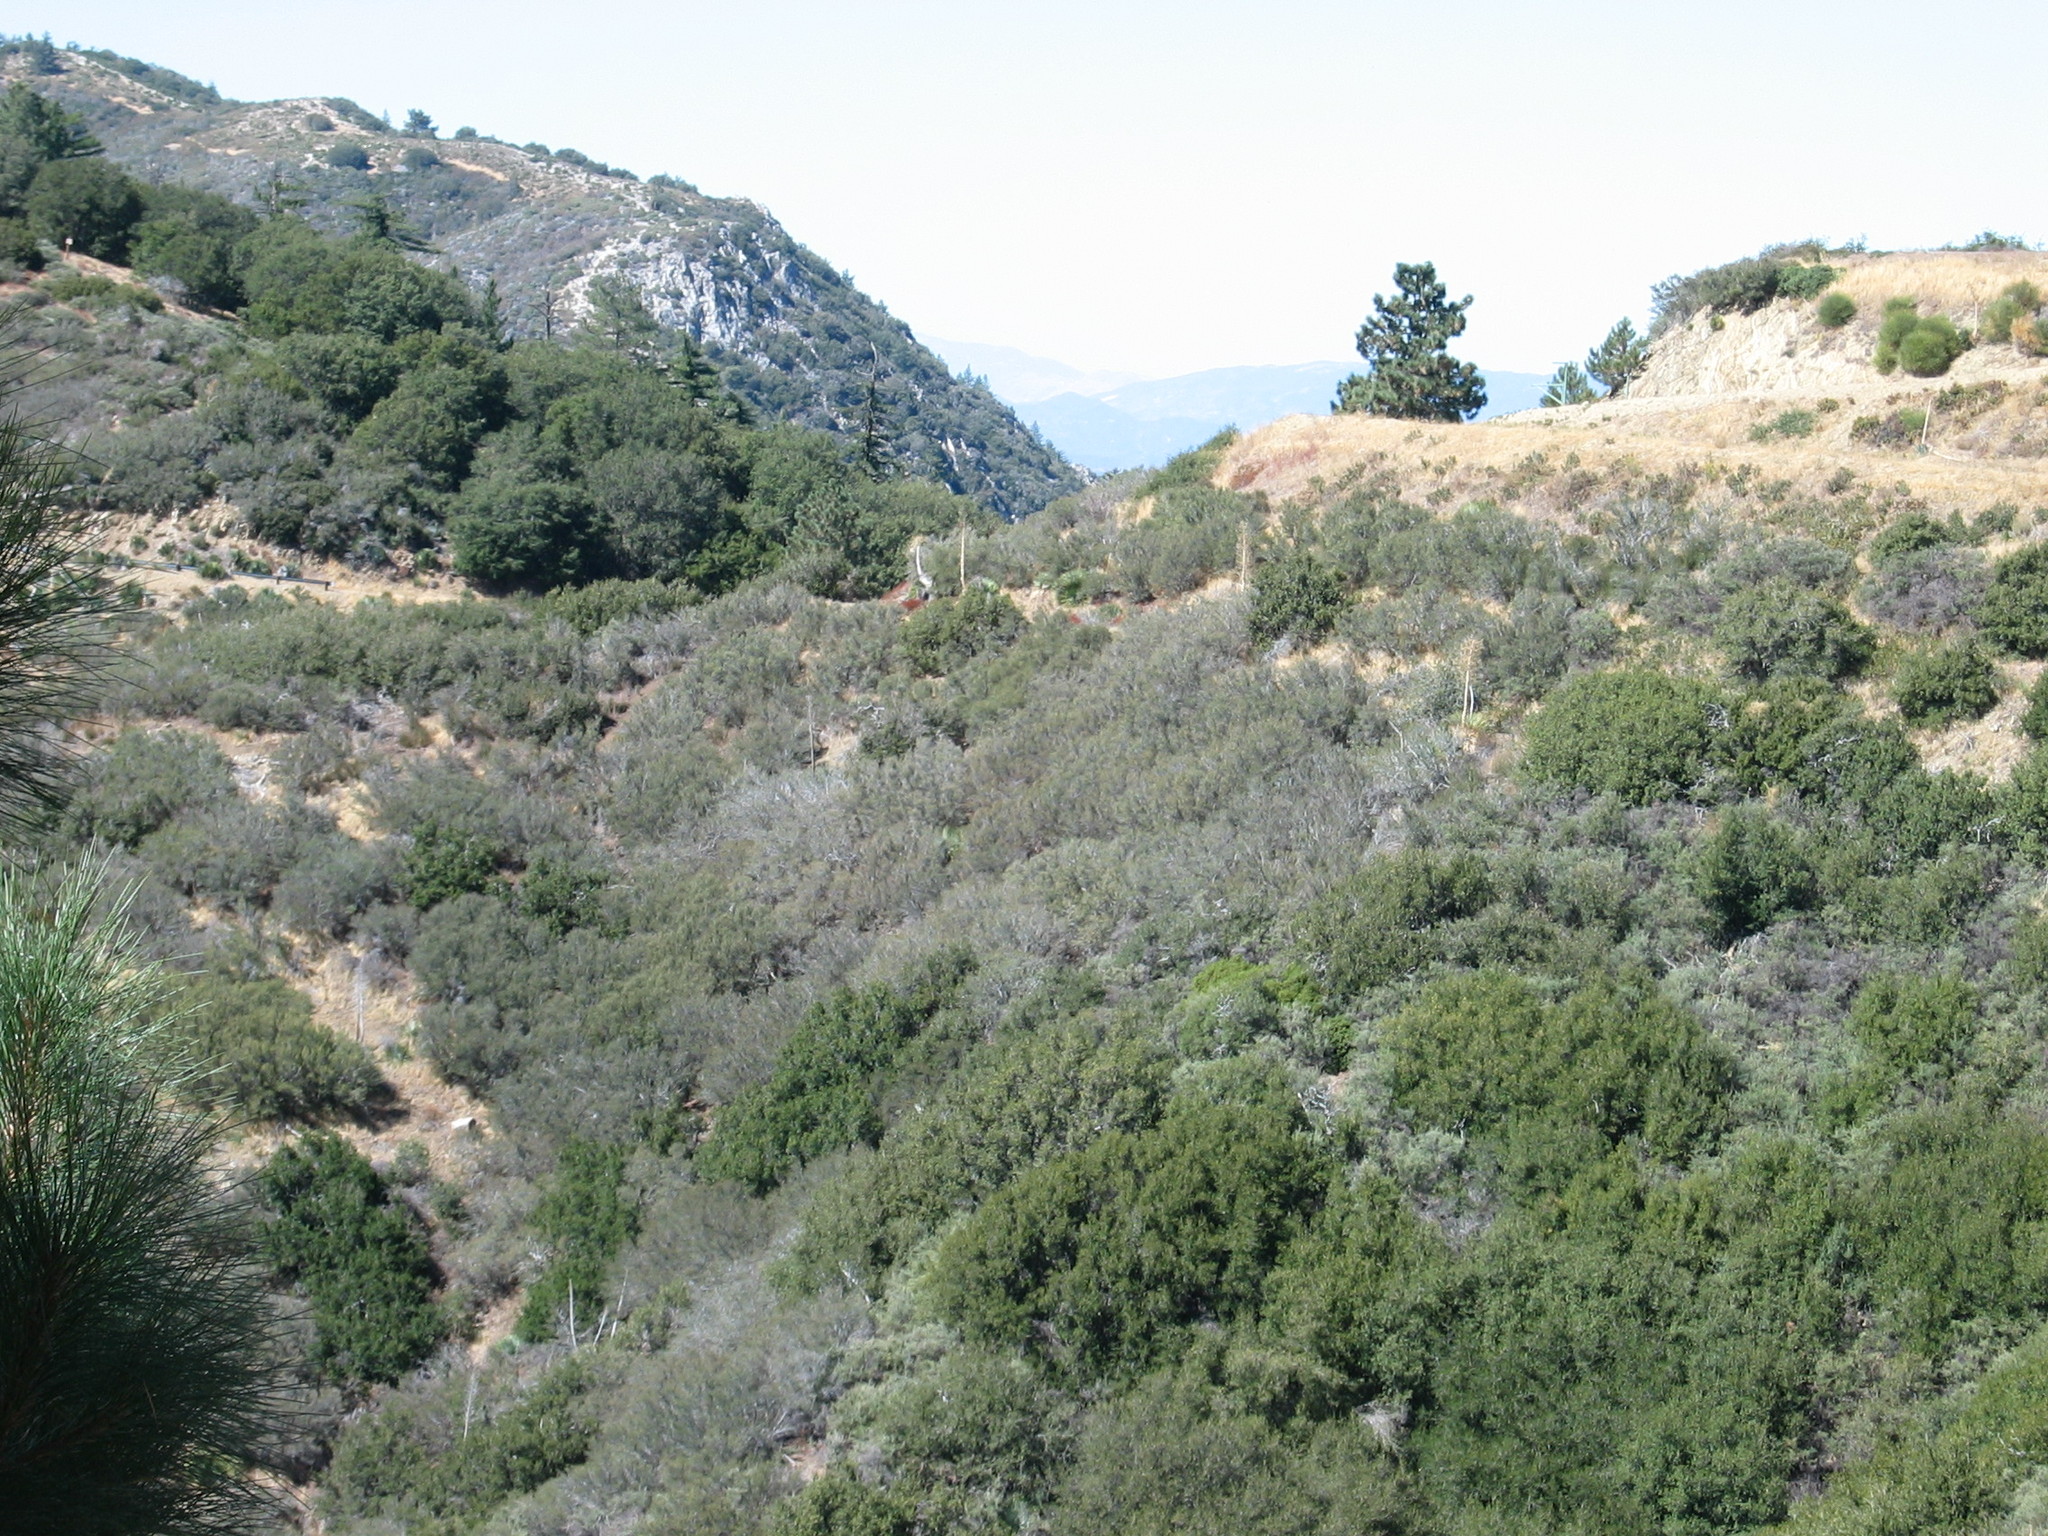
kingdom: Plantae
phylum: Tracheophyta
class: Pinopsida
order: Pinales
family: Pinaceae
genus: Pseudotsuga
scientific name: Pseudotsuga macrocarpa
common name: Big-cone douglas-fir
